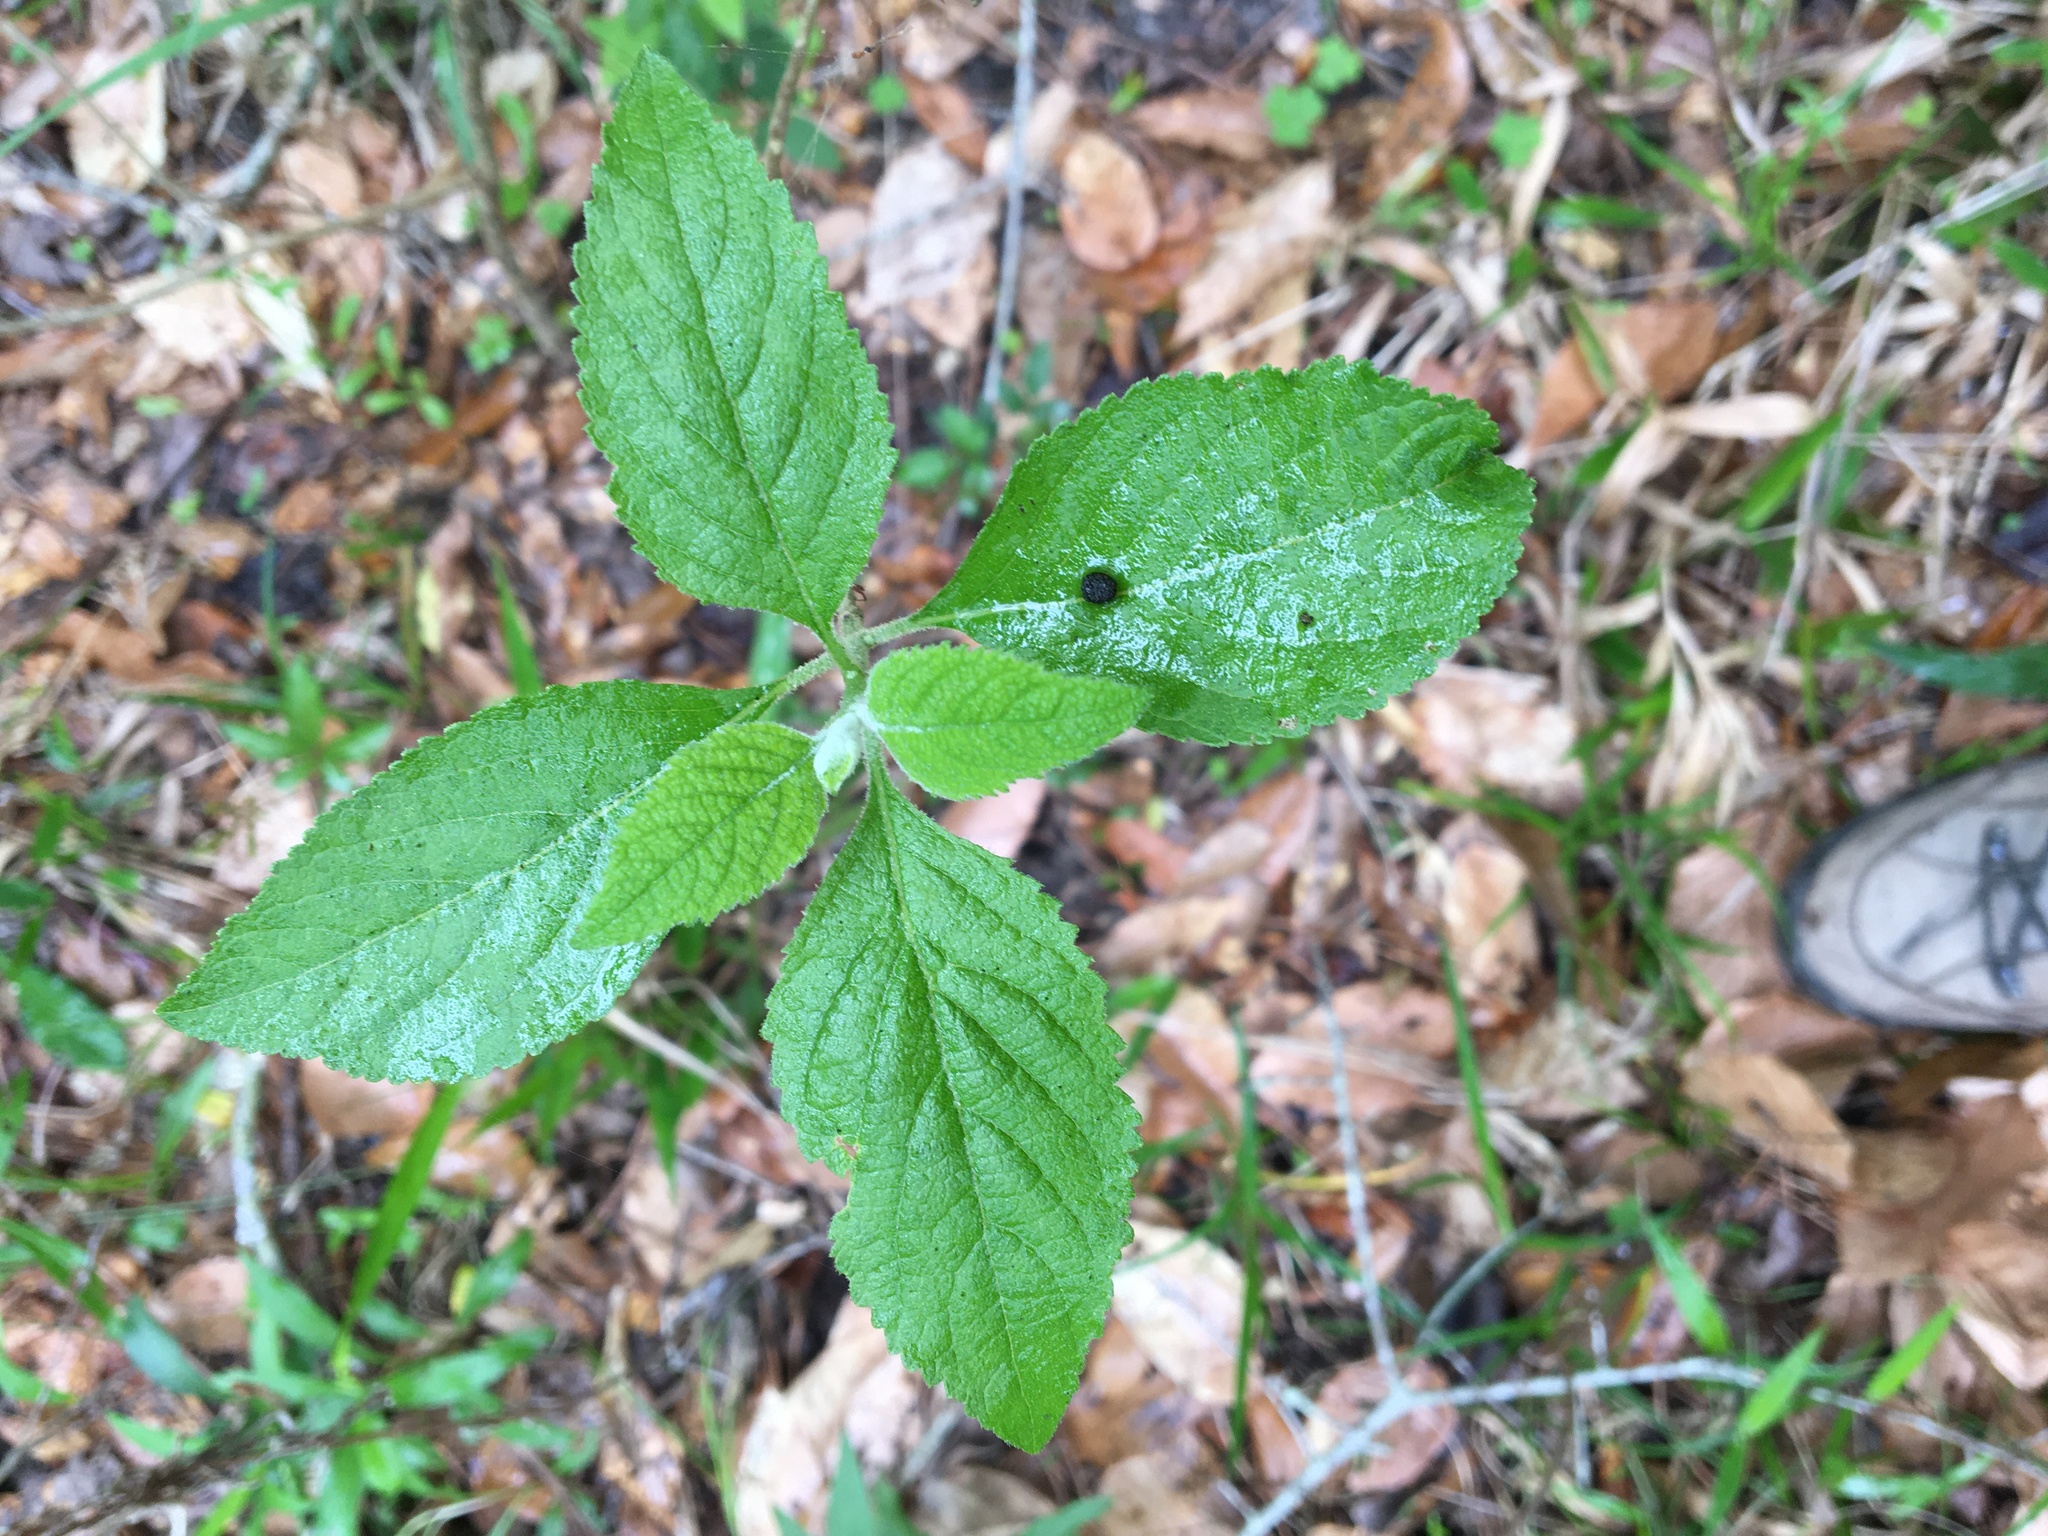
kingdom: Plantae
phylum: Tracheophyta
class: Magnoliopsida
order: Lamiales
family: Lamiaceae
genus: Callicarpa
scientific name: Callicarpa americana
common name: American beautyberry
